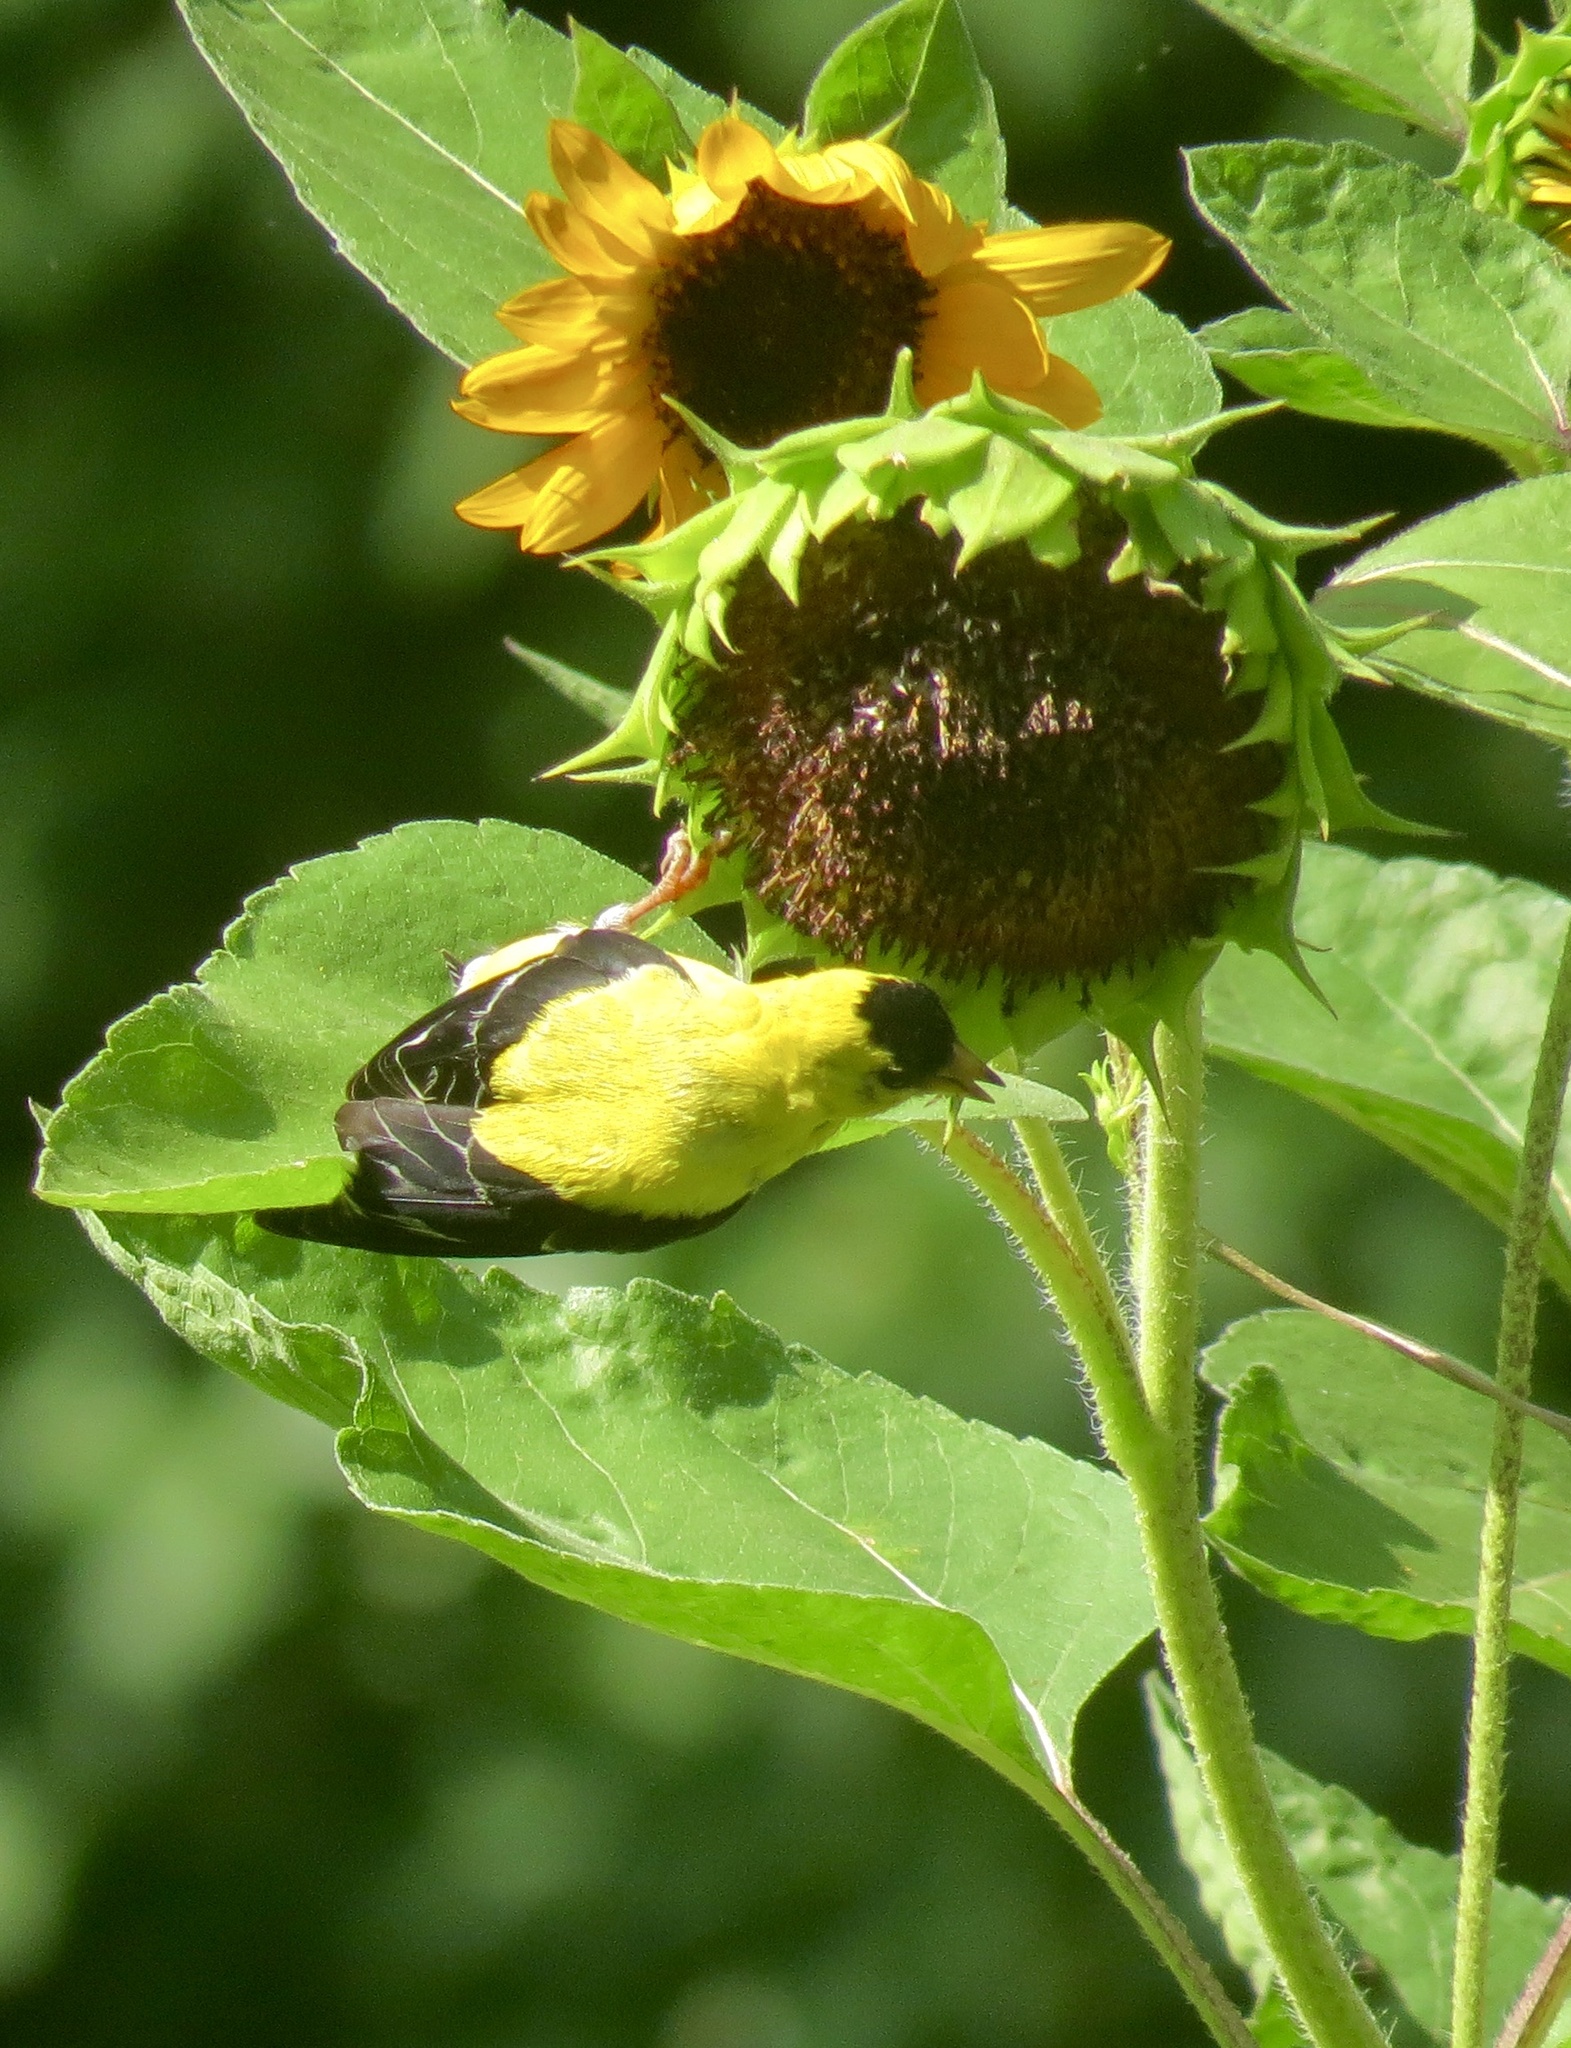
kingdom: Animalia
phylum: Chordata
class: Aves
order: Passeriformes
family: Fringillidae
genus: Spinus
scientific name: Spinus tristis
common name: American goldfinch
